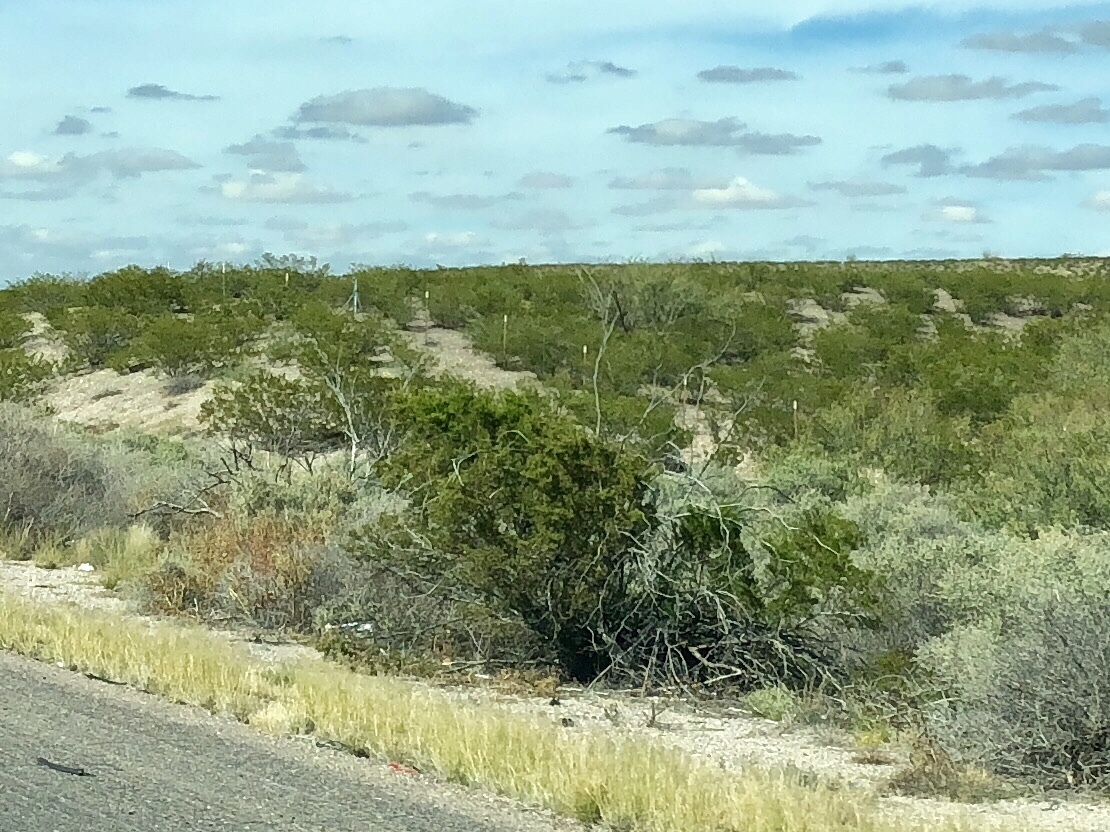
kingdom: Plantae
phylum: Tracheophyta
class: Magnoliopsida
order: Zygophyllales
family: Zygophyllaceae
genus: Larrea
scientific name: Larrea tridentata
